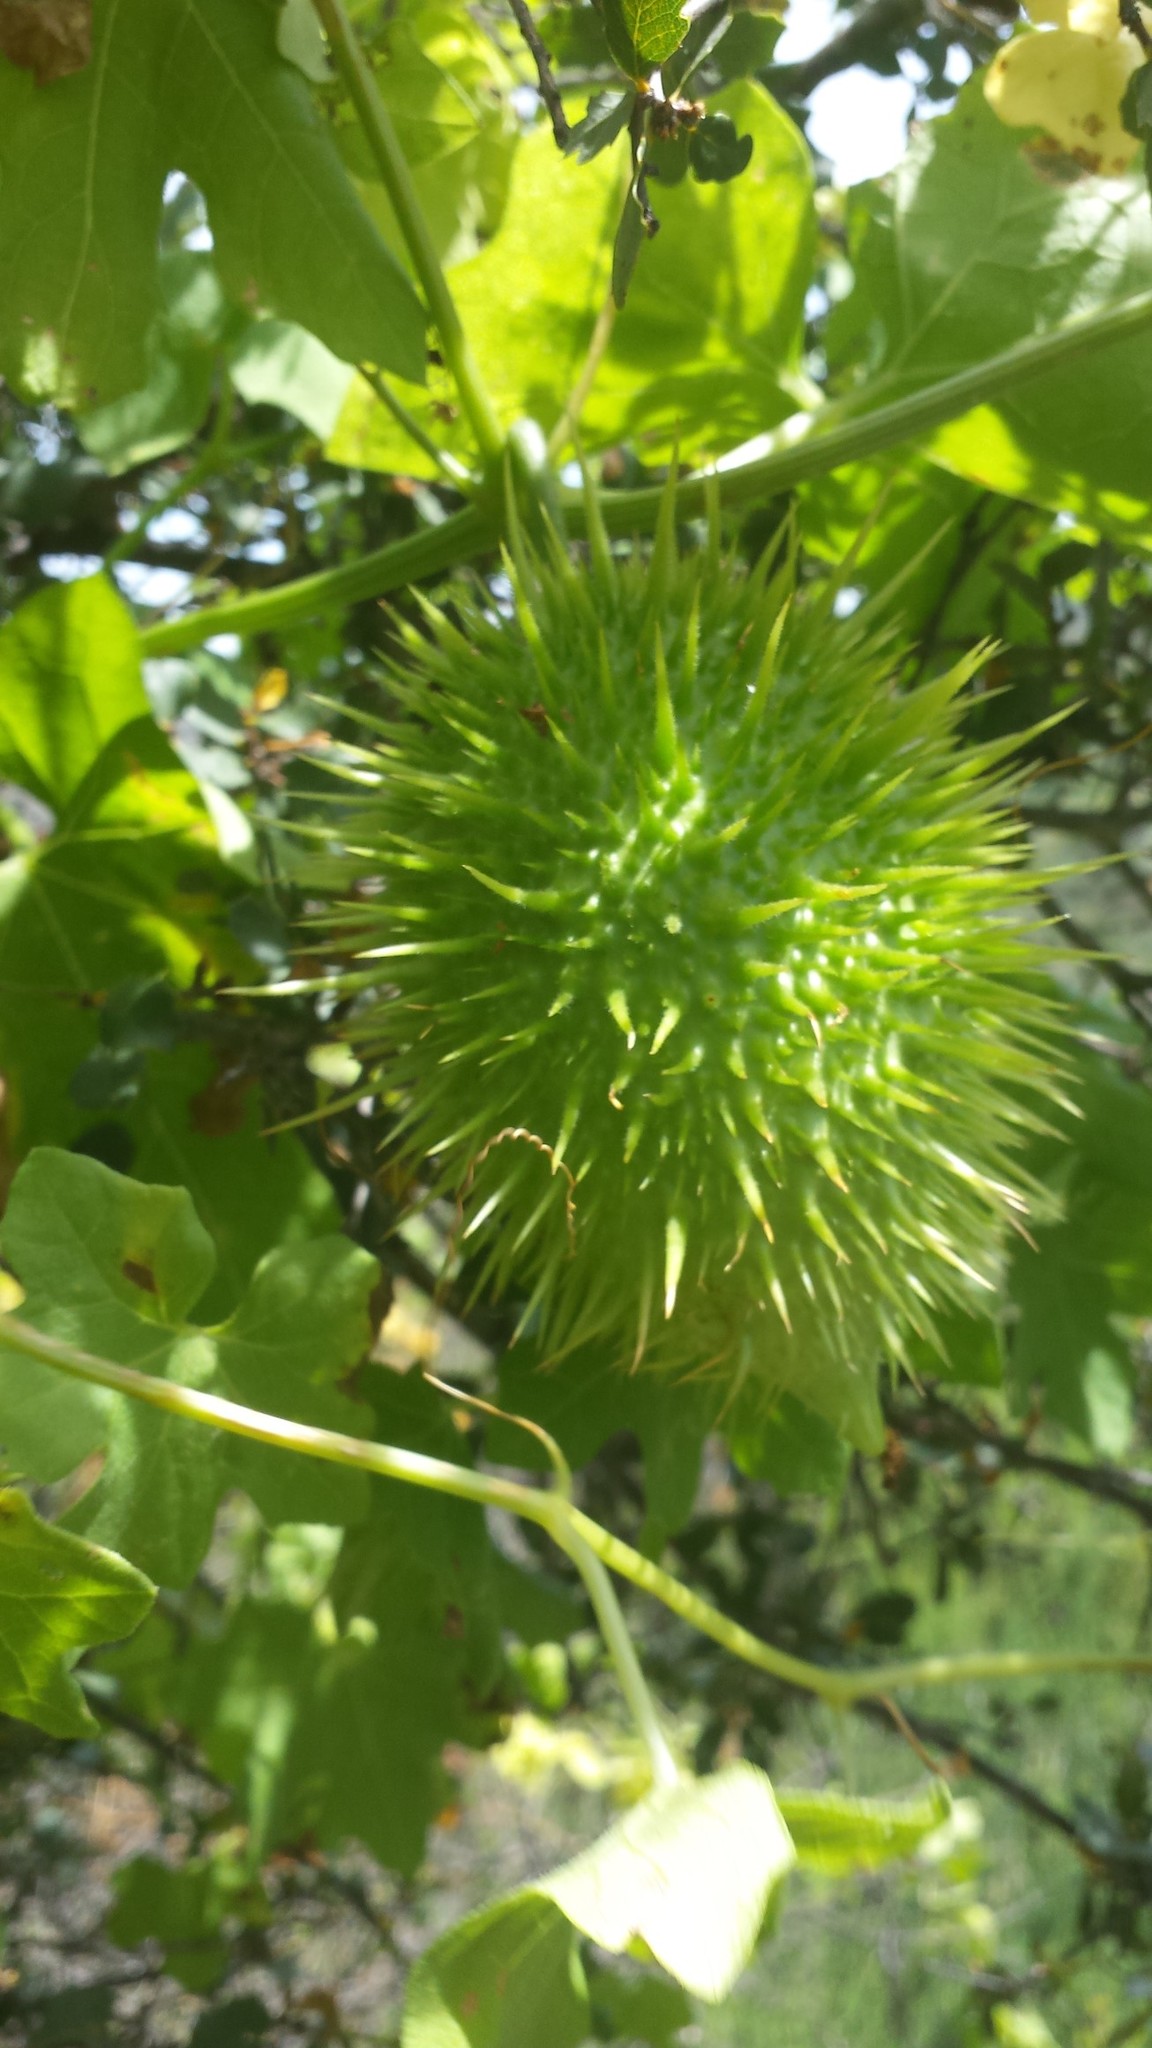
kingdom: Plantae
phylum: Tracheophyta
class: Magnoliopsida
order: Cucurbitales
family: Cucurbitaceae
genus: Marah
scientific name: Marah macrocarpa
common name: Cucamonga manroot
